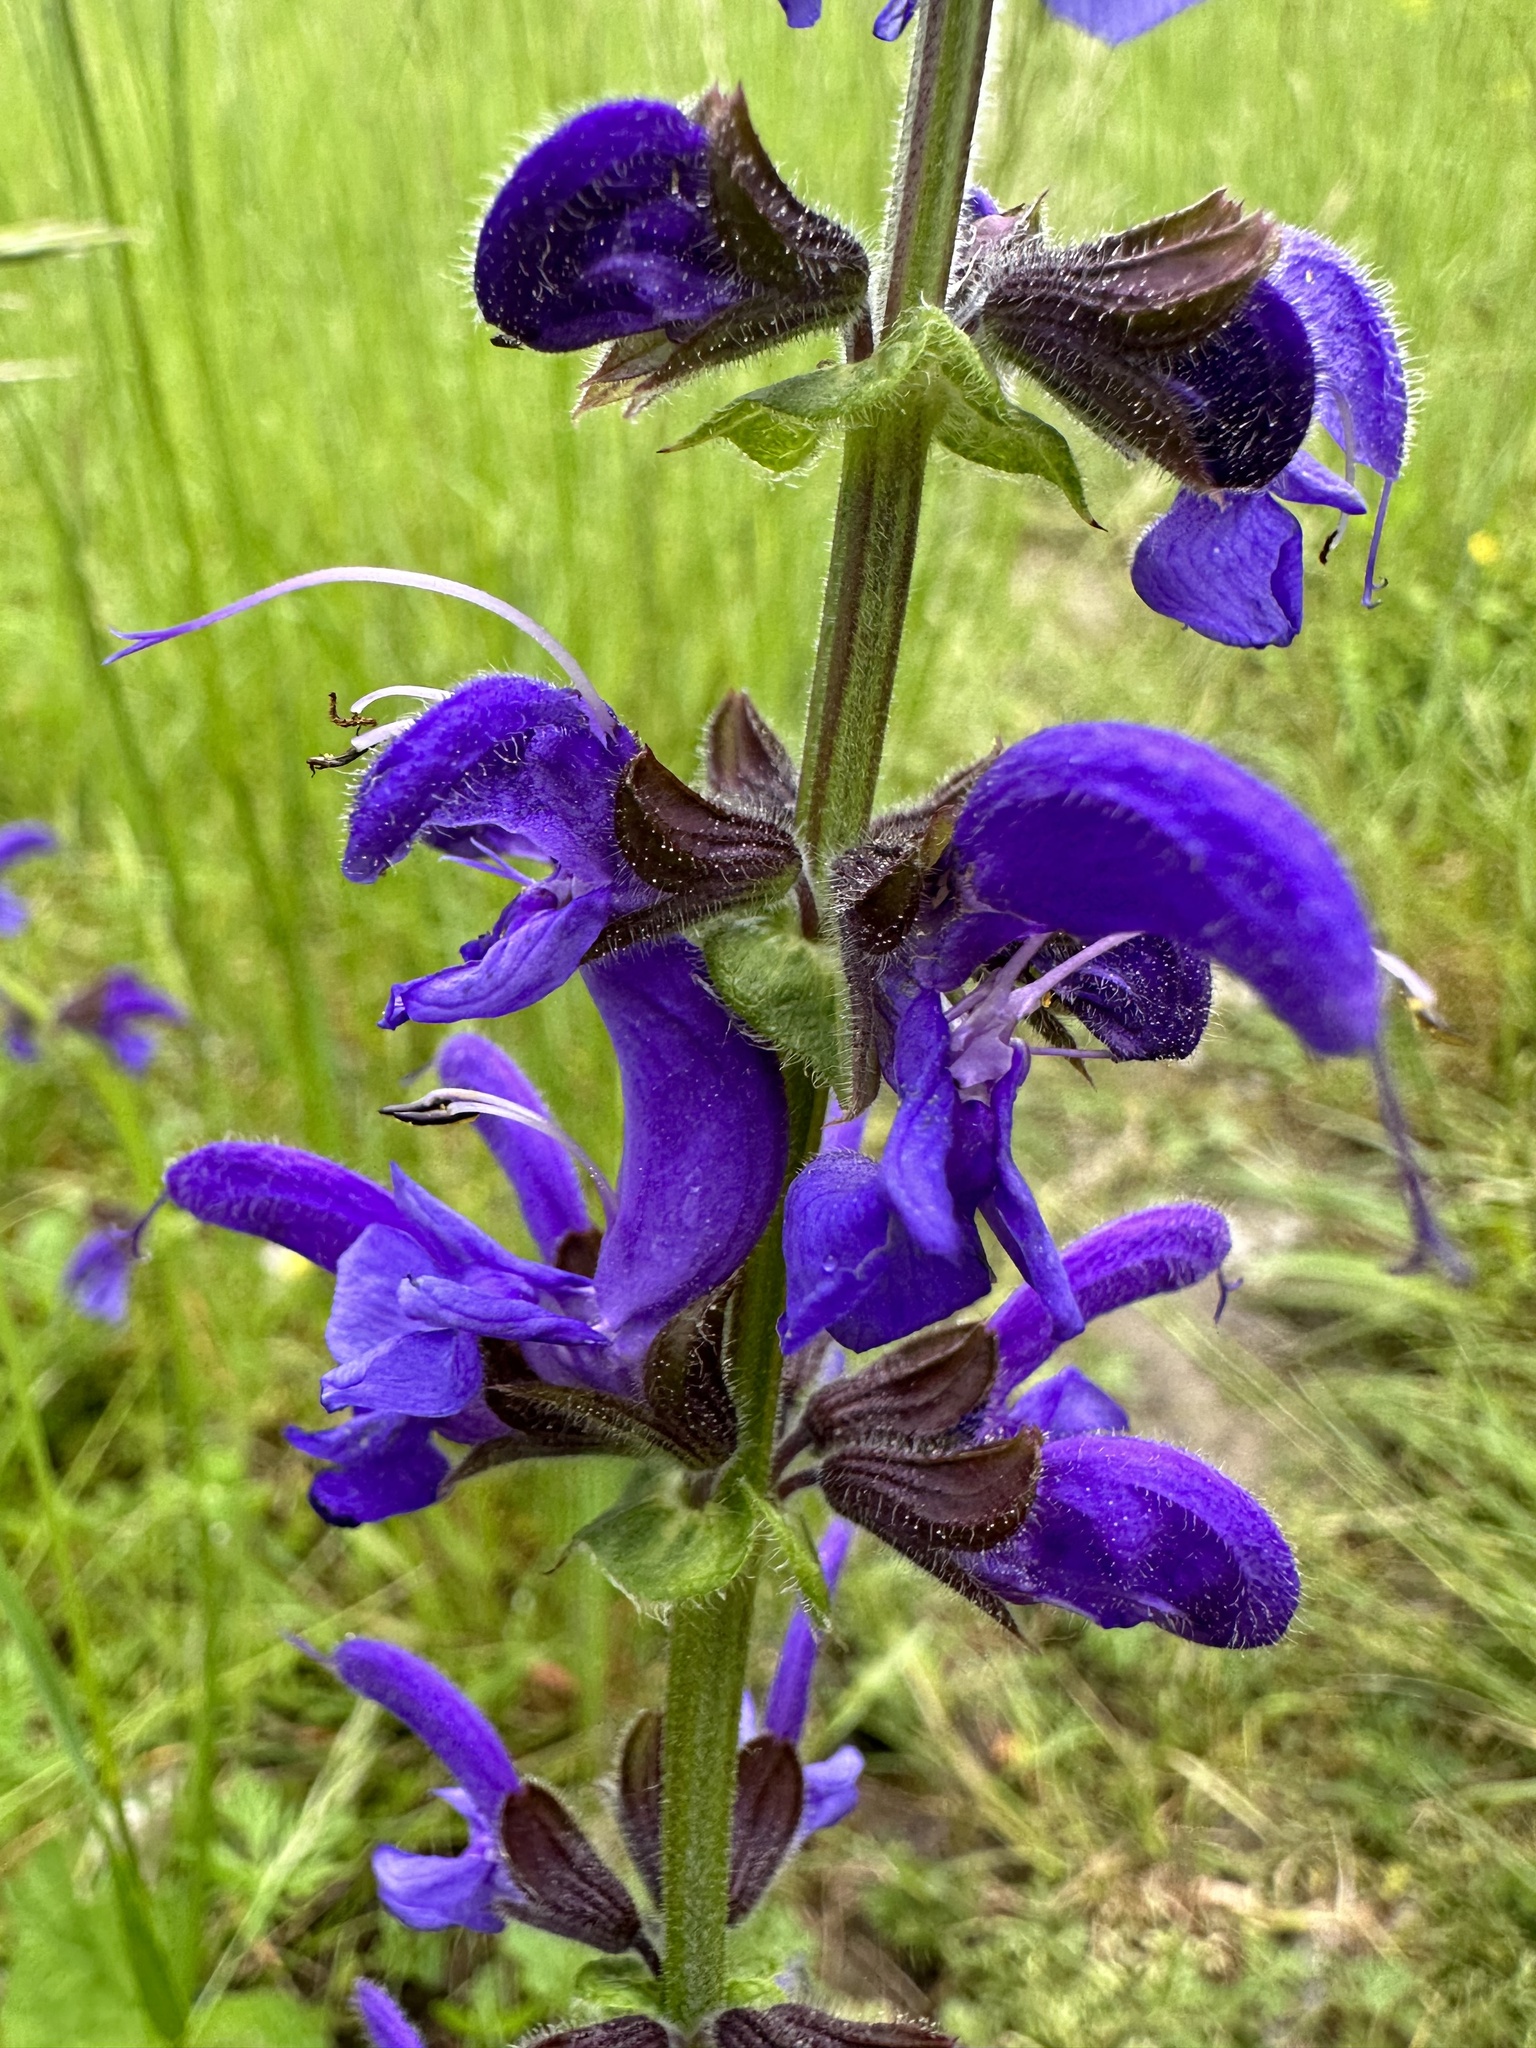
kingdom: Plantae
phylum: Tracheophyta
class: Magnoliopsida
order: Lamiales
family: Lamiaceae
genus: Salvia
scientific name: Salvia pratensis
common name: Meadow sage
